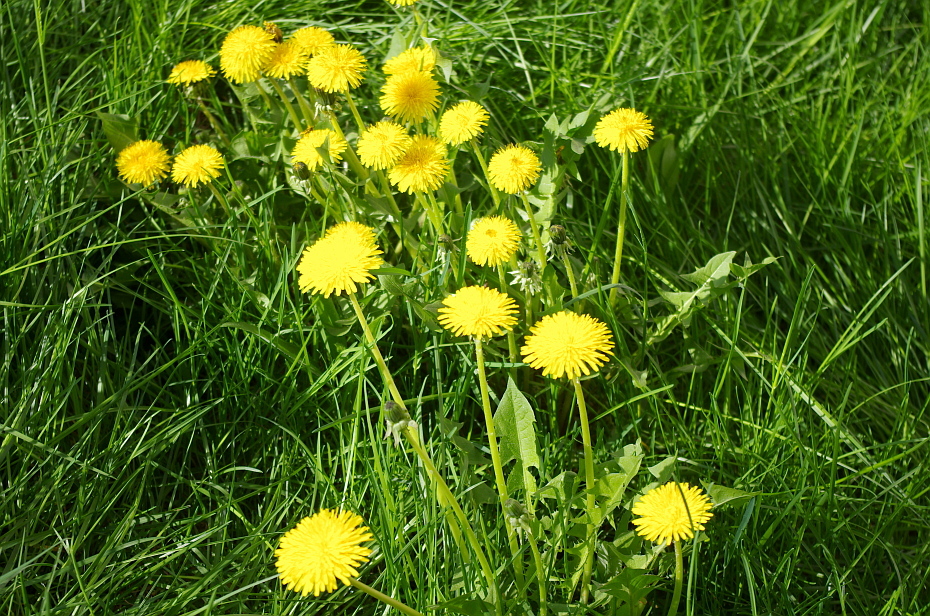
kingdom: Plantae
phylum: Tracheophyta
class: Magnoliopsida
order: Asterales
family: Asteraceae
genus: Taraxacum
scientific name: Taraxacum officinale
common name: Common dandelion
